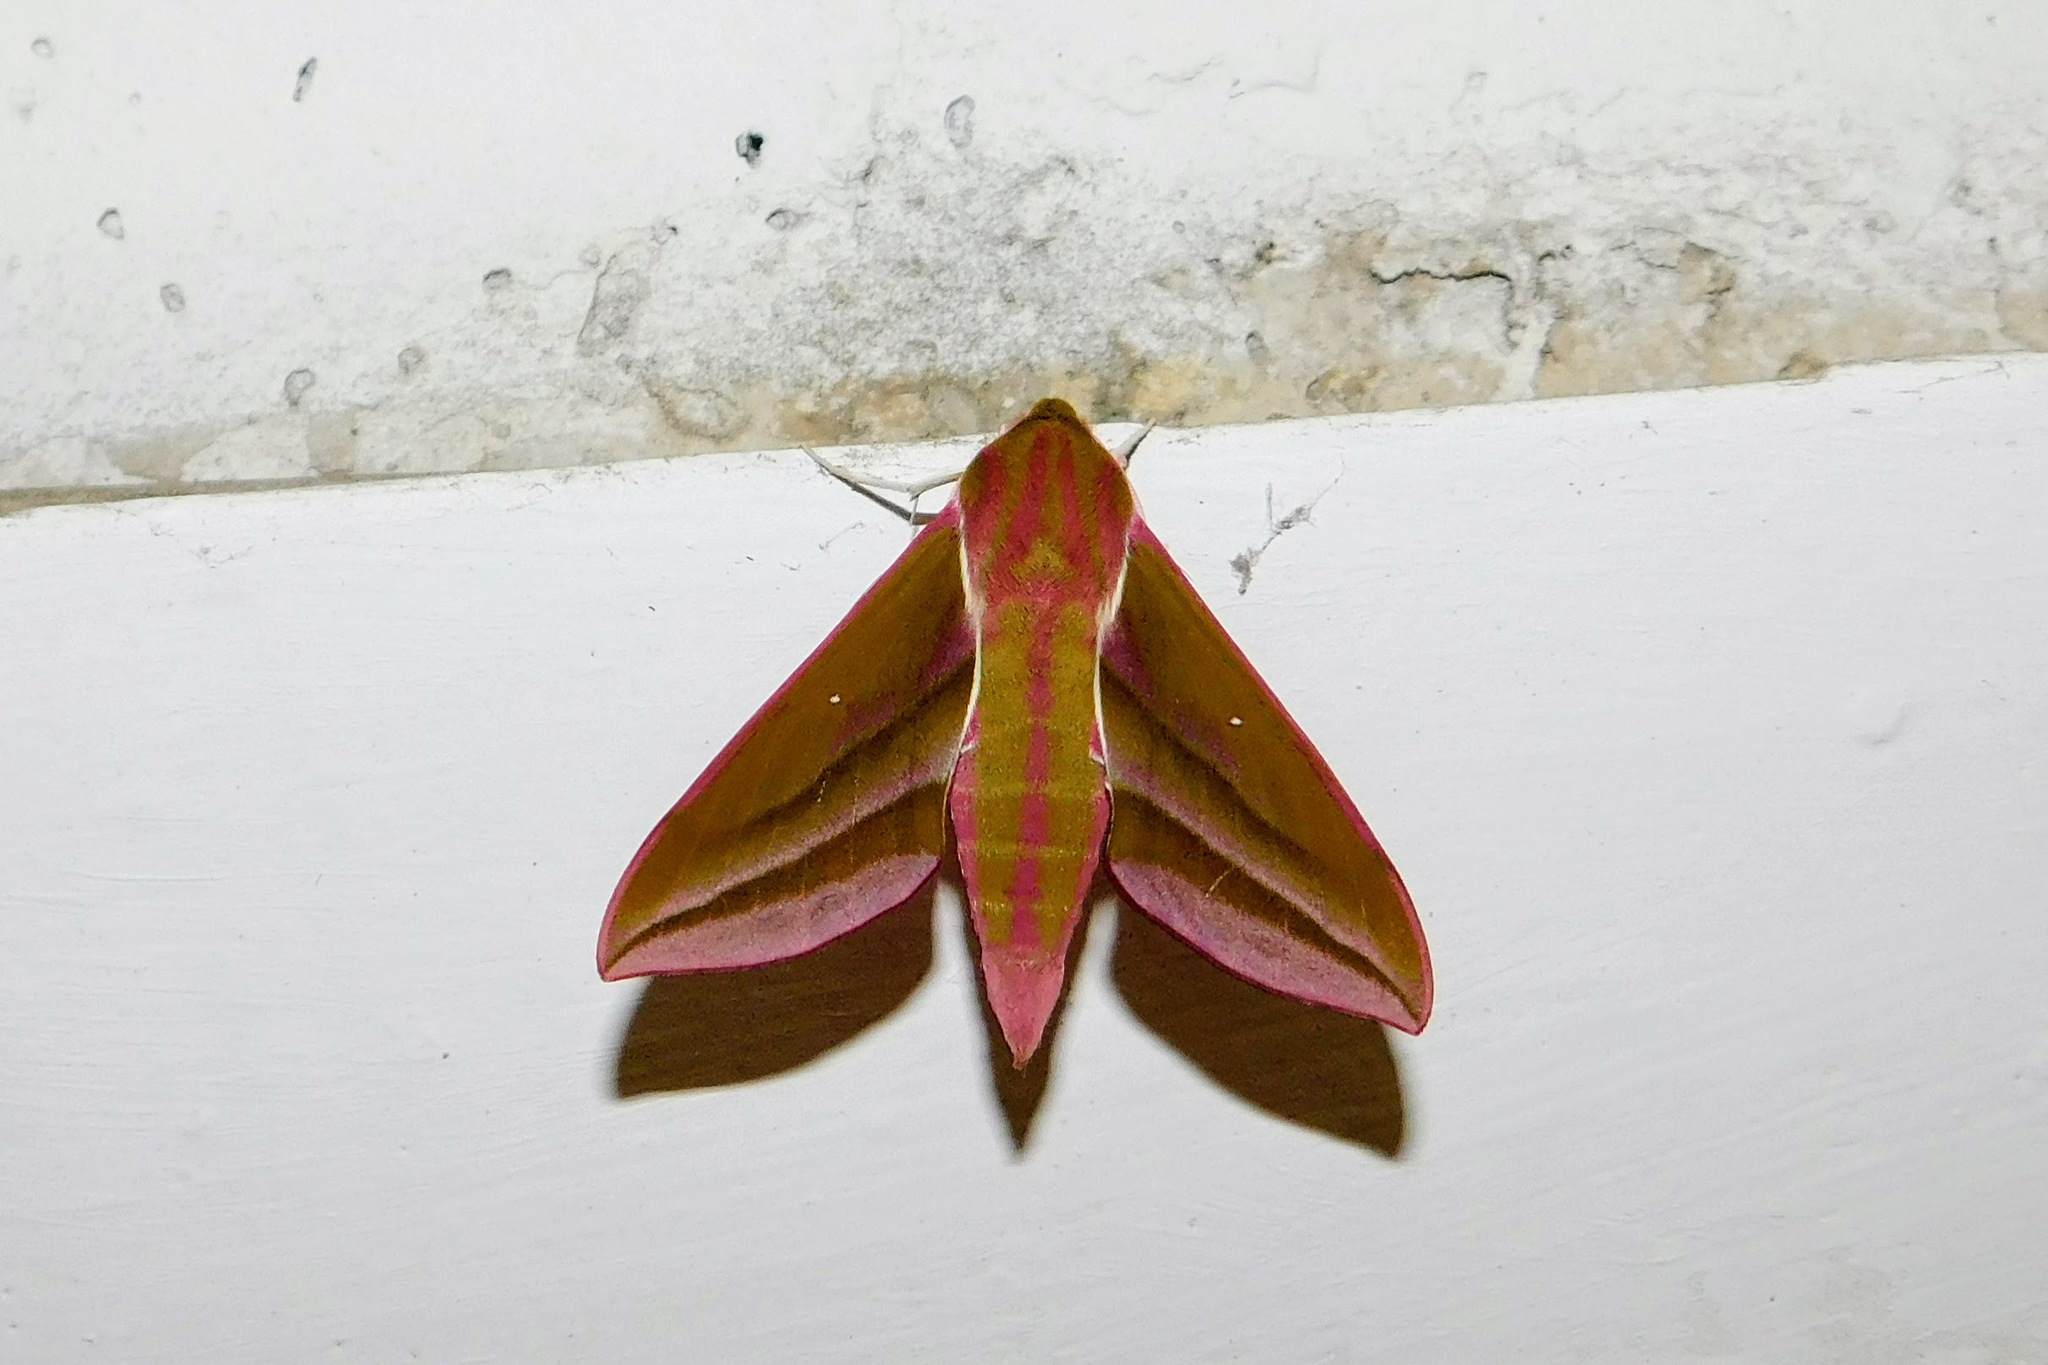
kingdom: Animalia
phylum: Arthropoda
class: Insecta
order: Lepidoptera
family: Sphingidae
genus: Deilephila
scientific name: Deilephila elpenor
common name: Elephant hawk-moth
